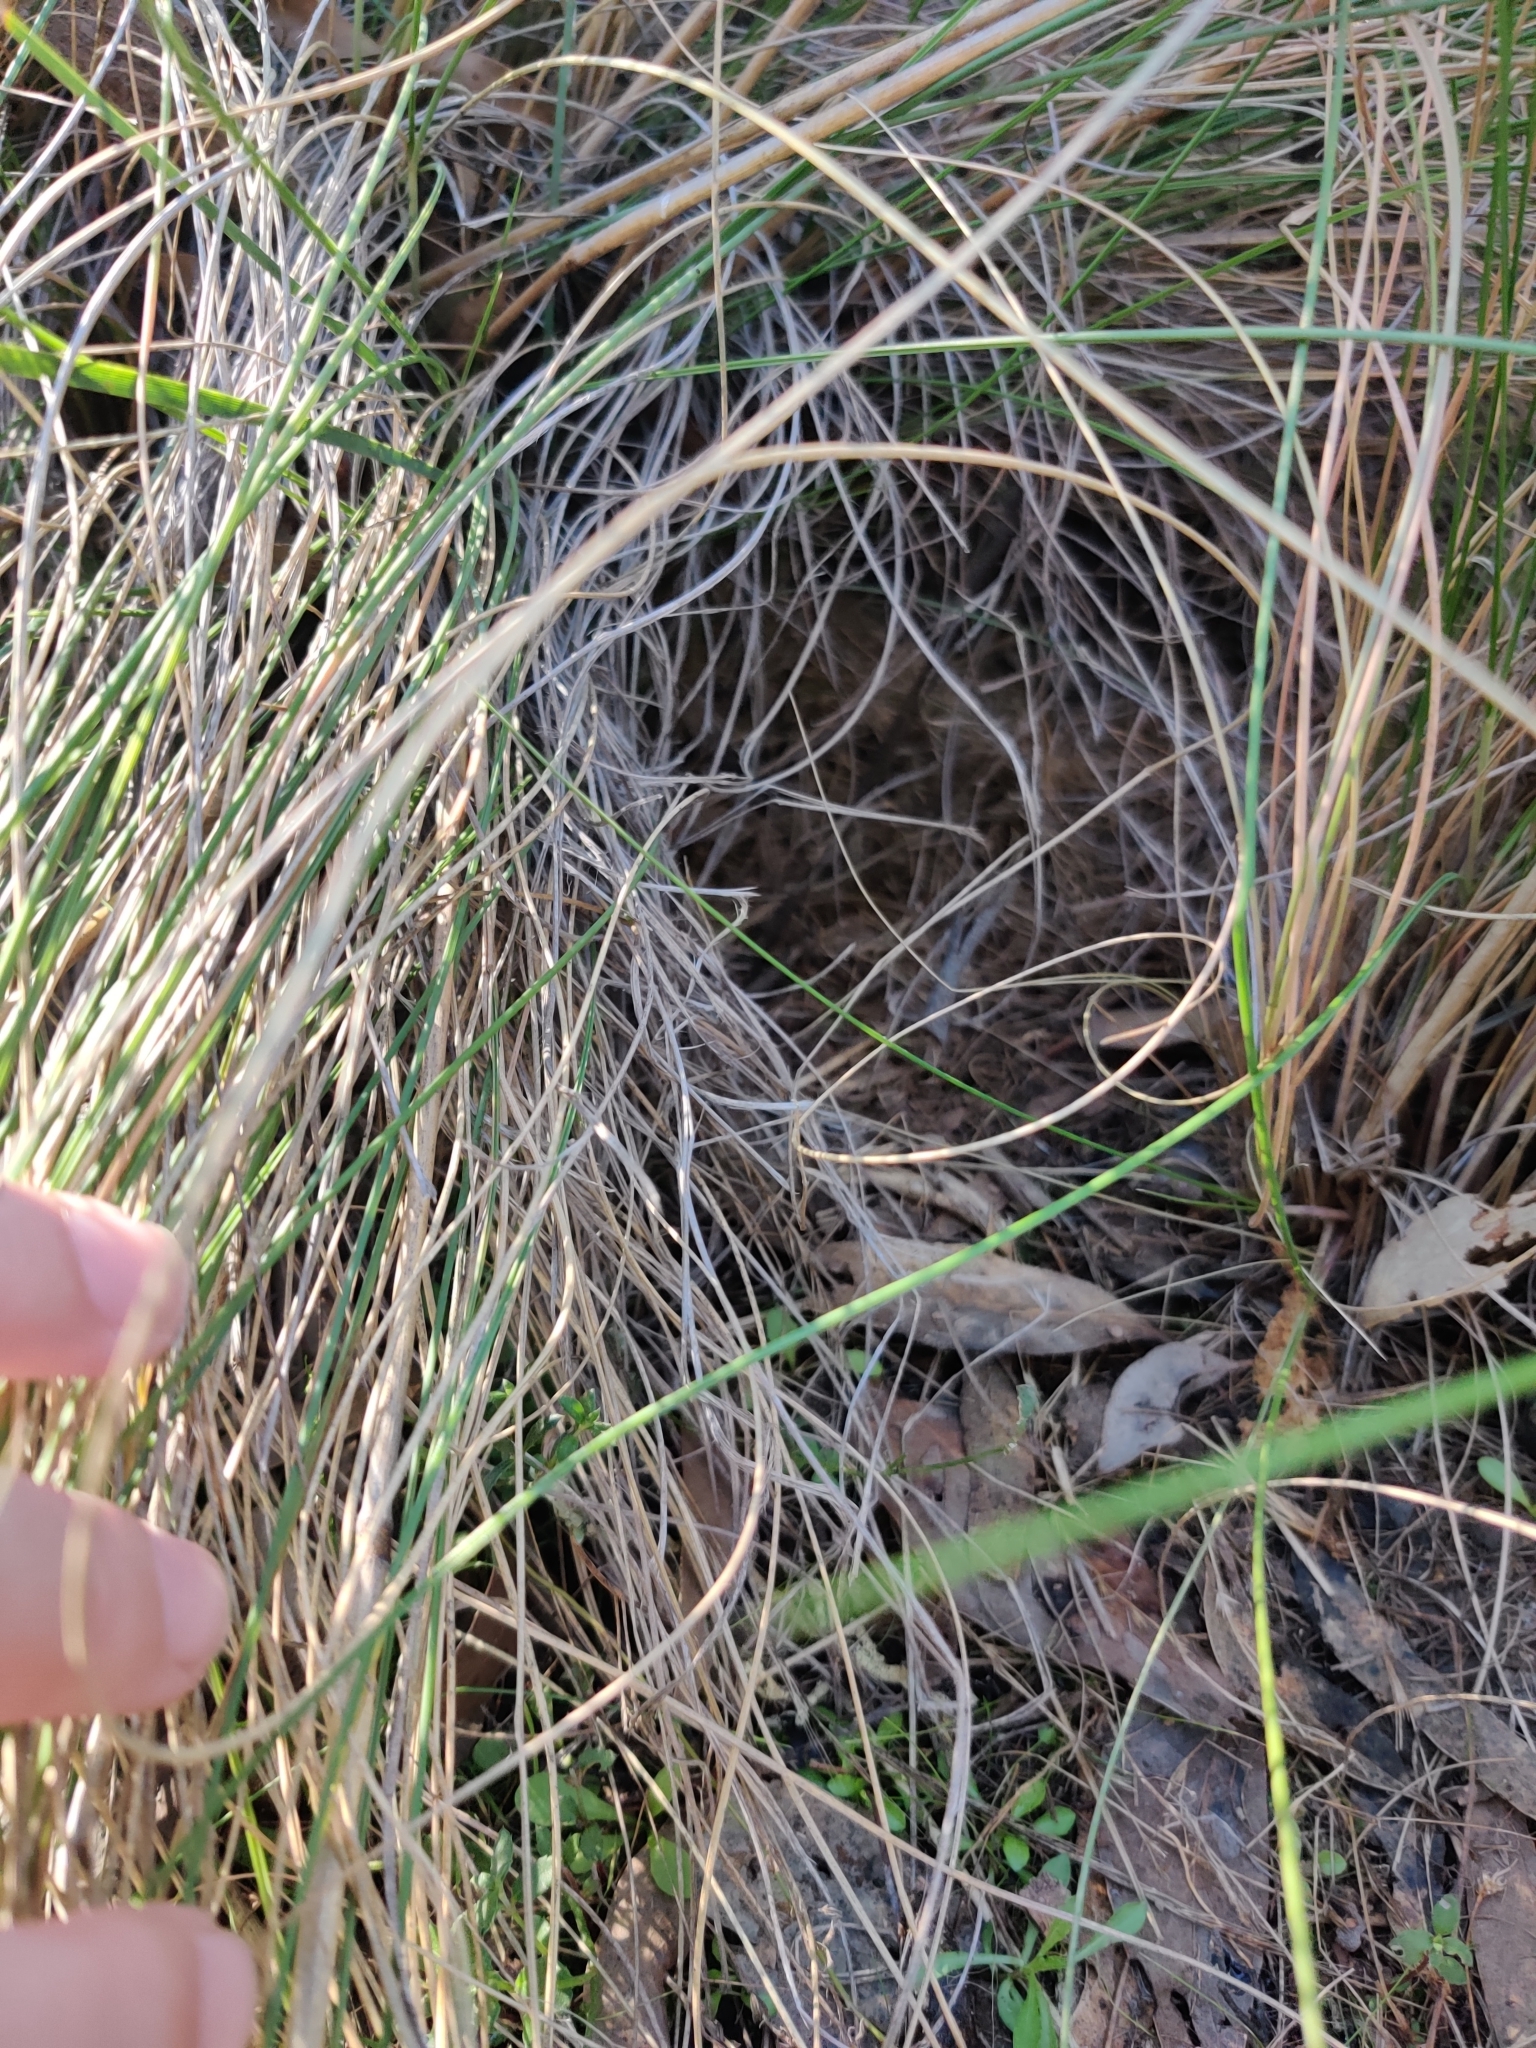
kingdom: Animalia
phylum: Chordata
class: Mammalia
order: Diprotodontia
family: Potoroidae
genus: Bettongia
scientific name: Bettongia gaimardi
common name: Eastern bettong
